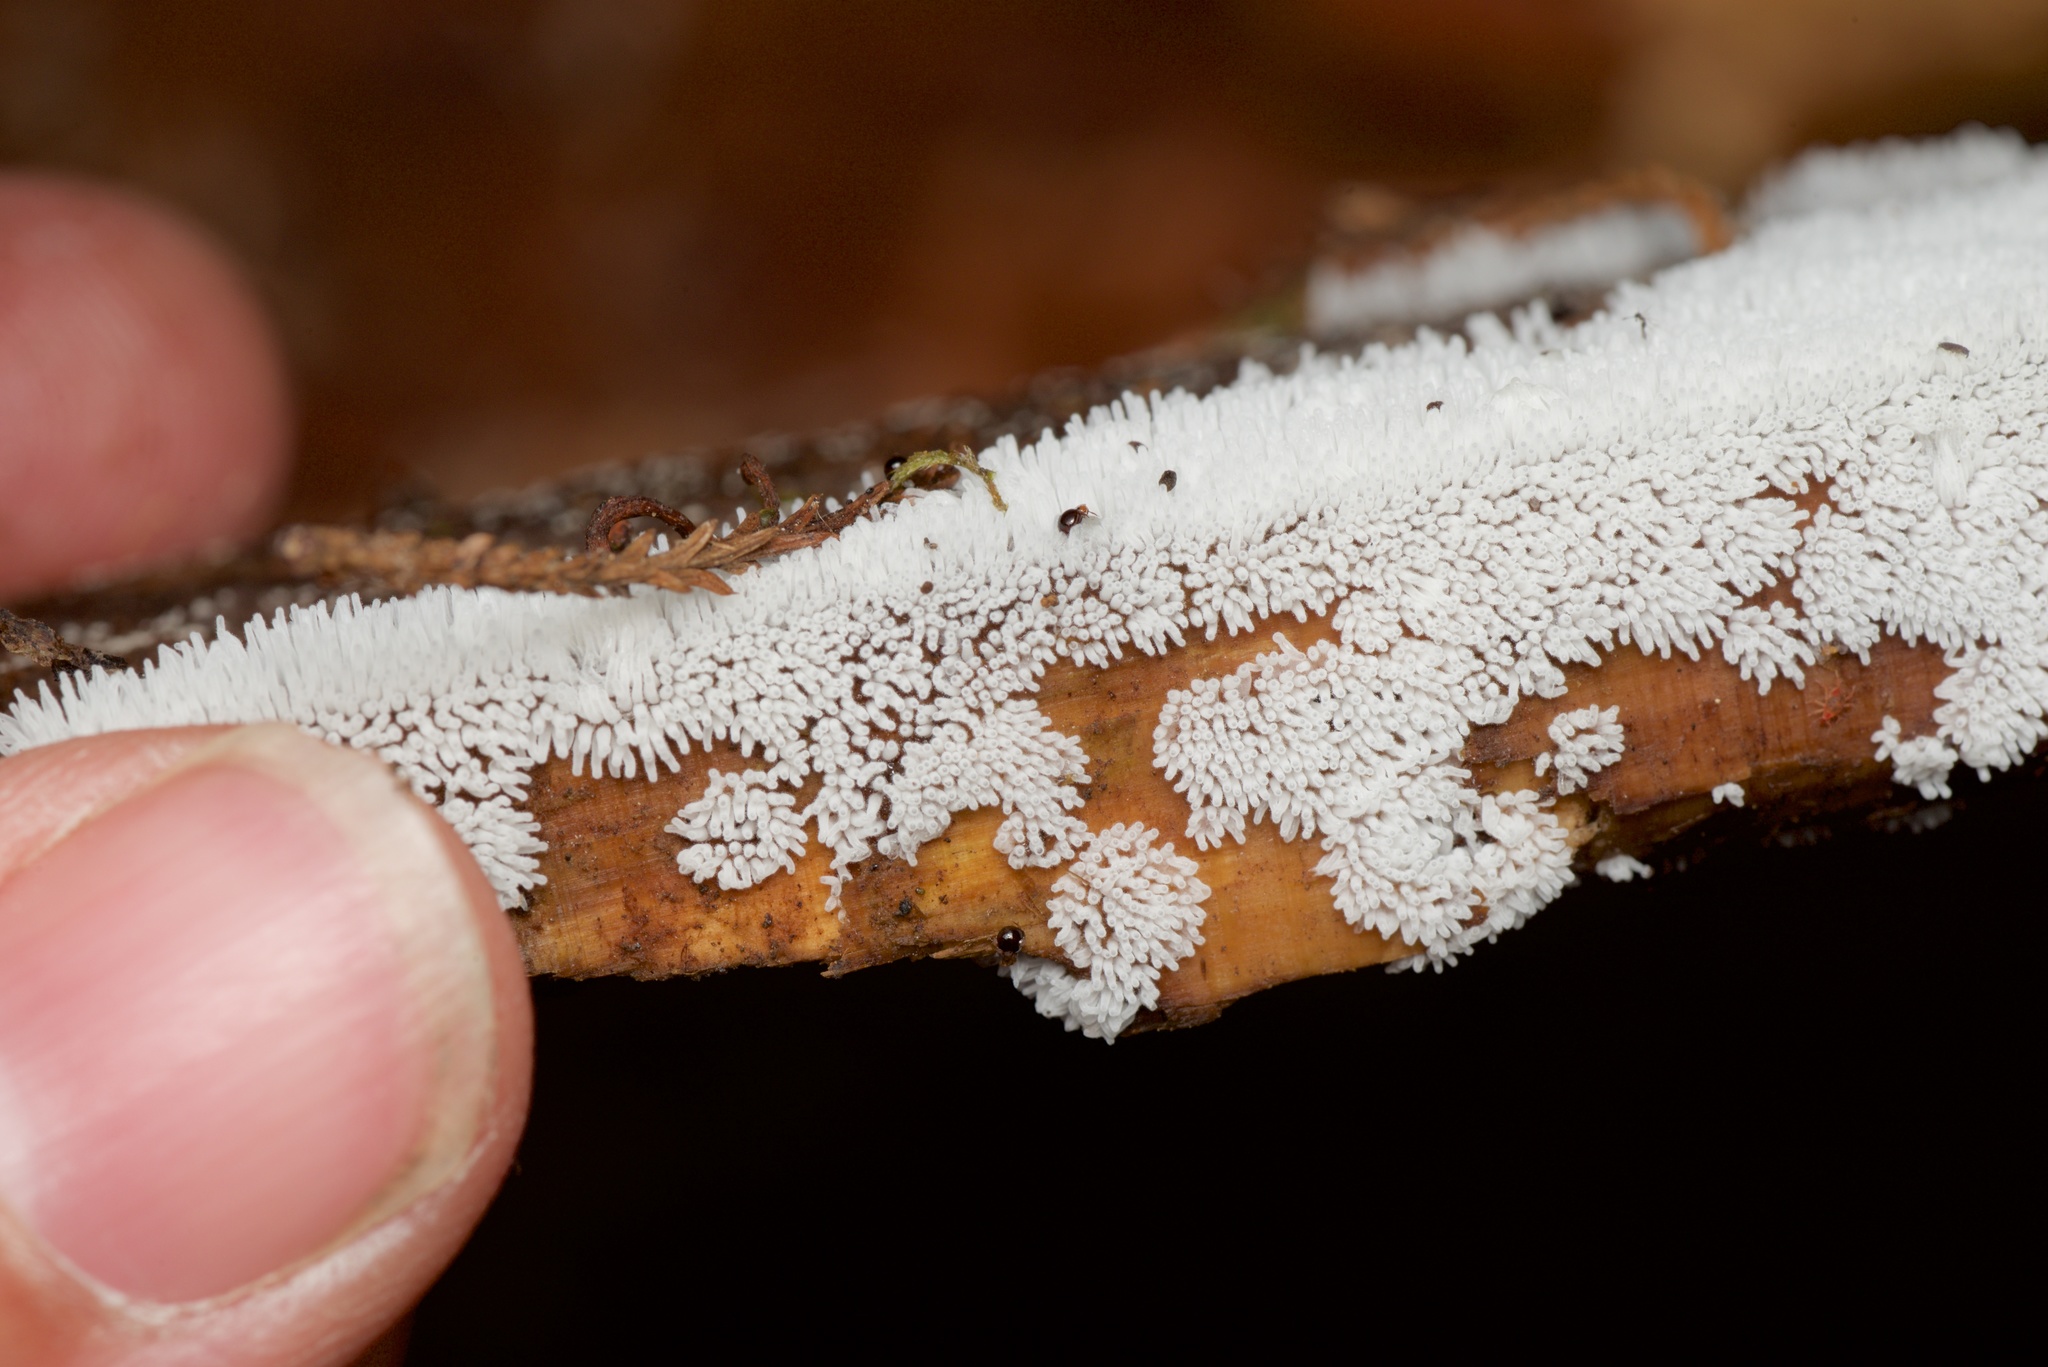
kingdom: Protozoa
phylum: Mycetozoa
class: Protosteliomycetes
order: Ceratiomyxales
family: Ceratiomyxaceae
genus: Ceratiomyxa
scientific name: Ceratiomyxa fruticulosa
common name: Honeycomb coral slime mold
